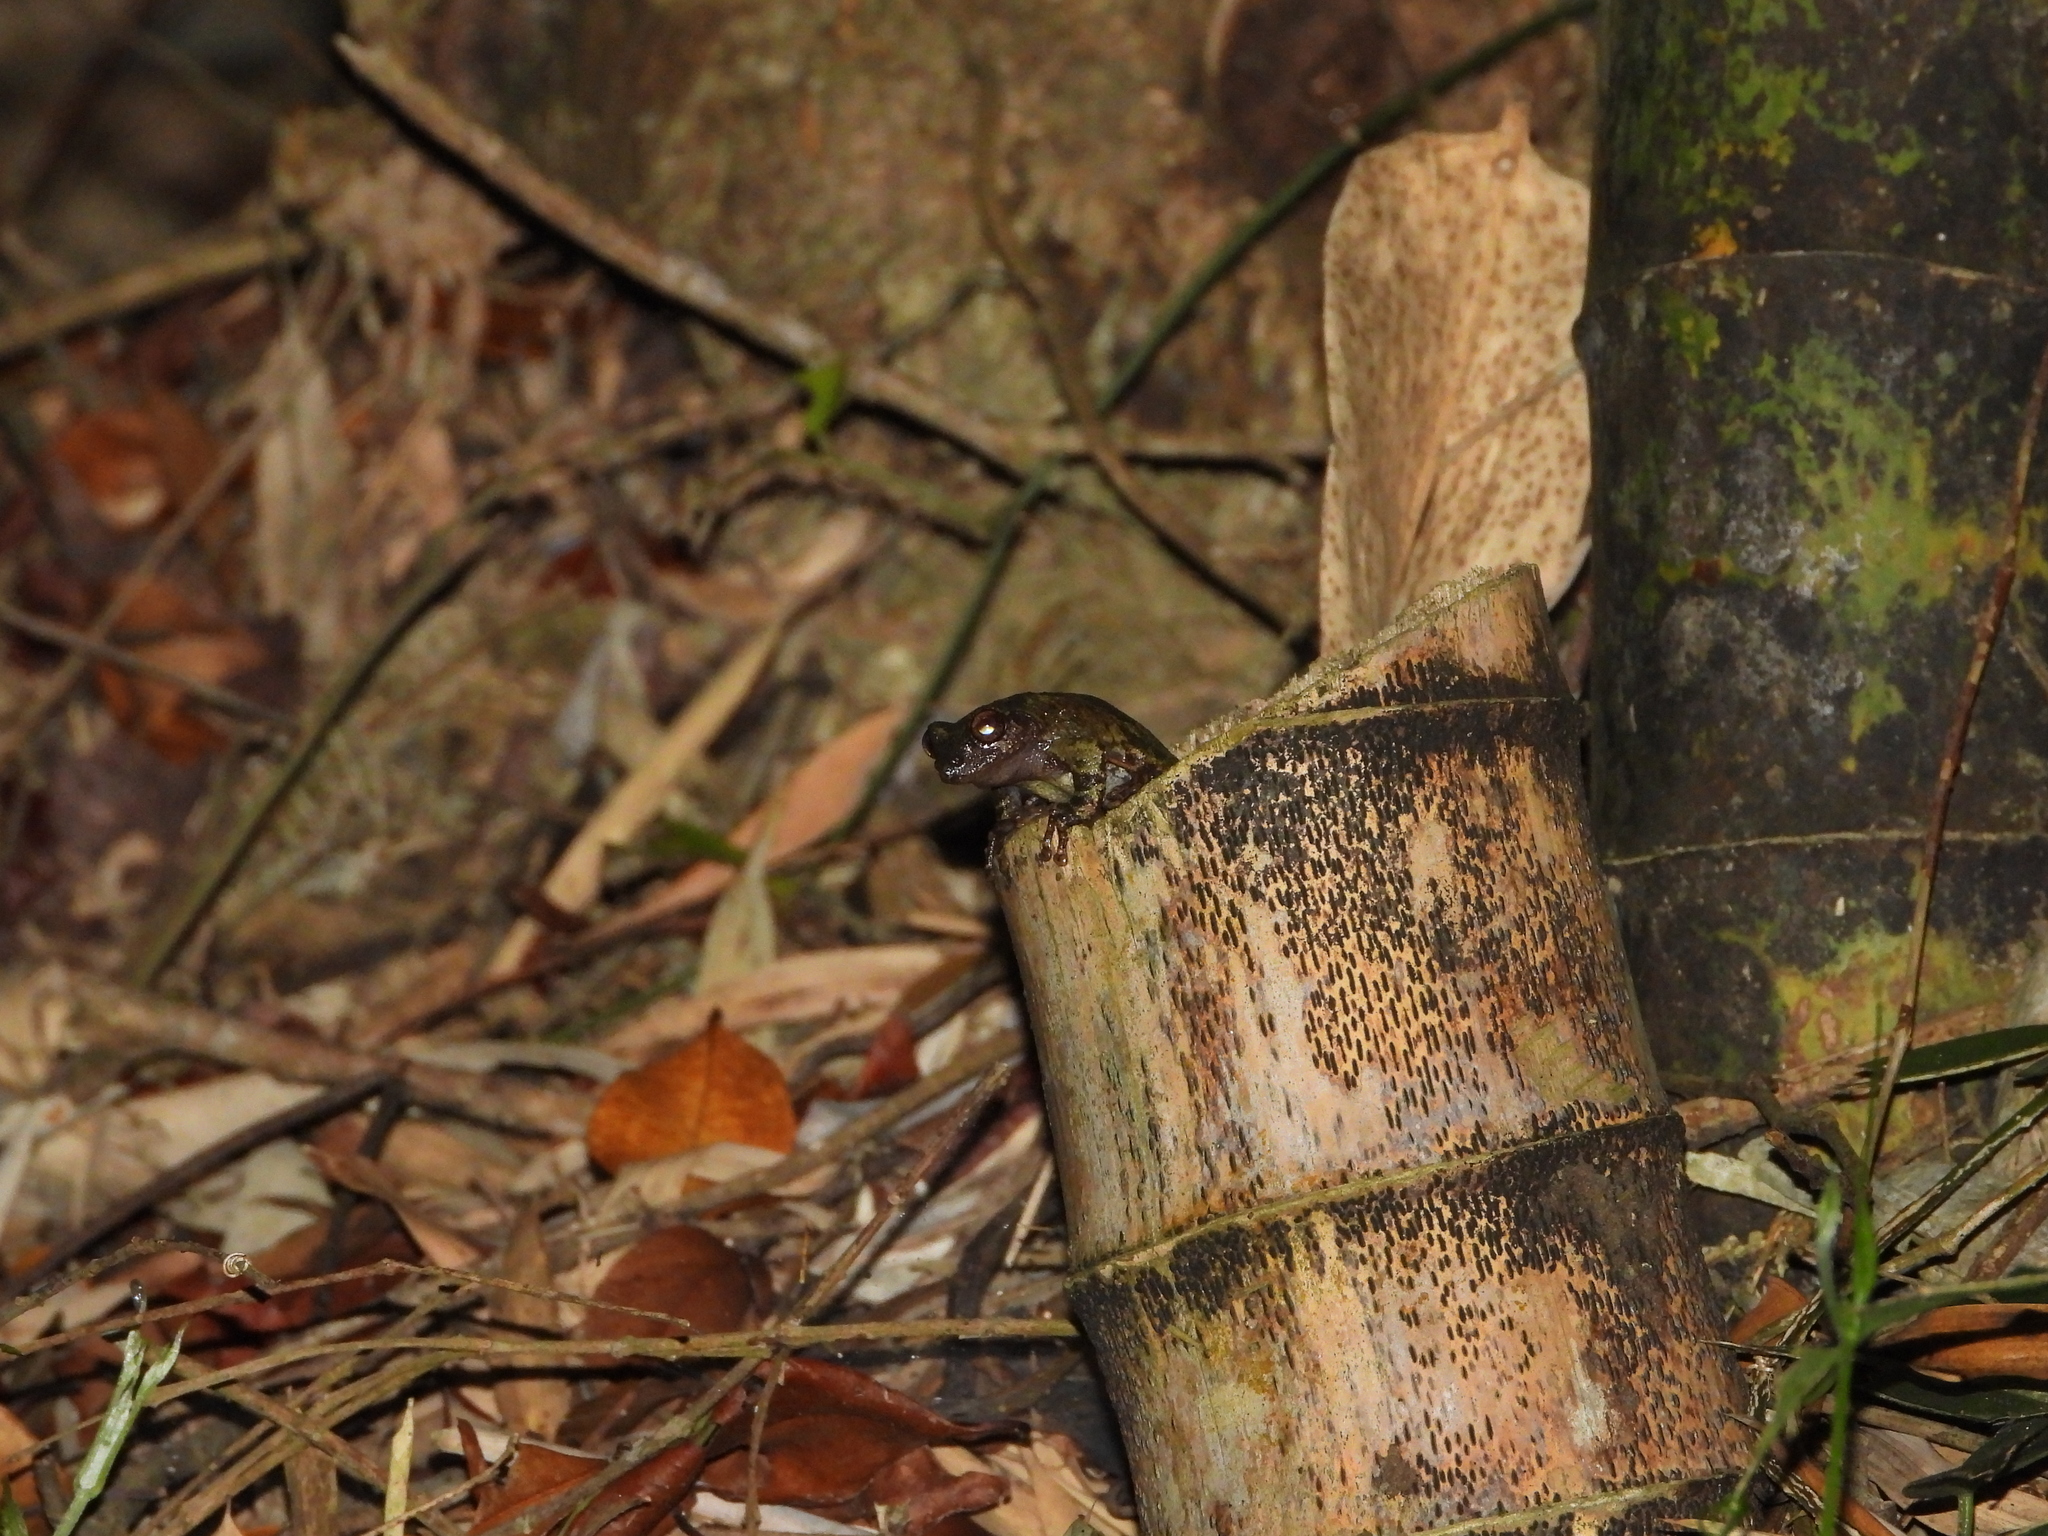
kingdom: Animalia
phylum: Chordata
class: Amphibia
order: Anura
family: Rhacophoridae
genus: Kurixalus
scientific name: Kurixalus eiffingeri
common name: Eiffinger’s treefrog
